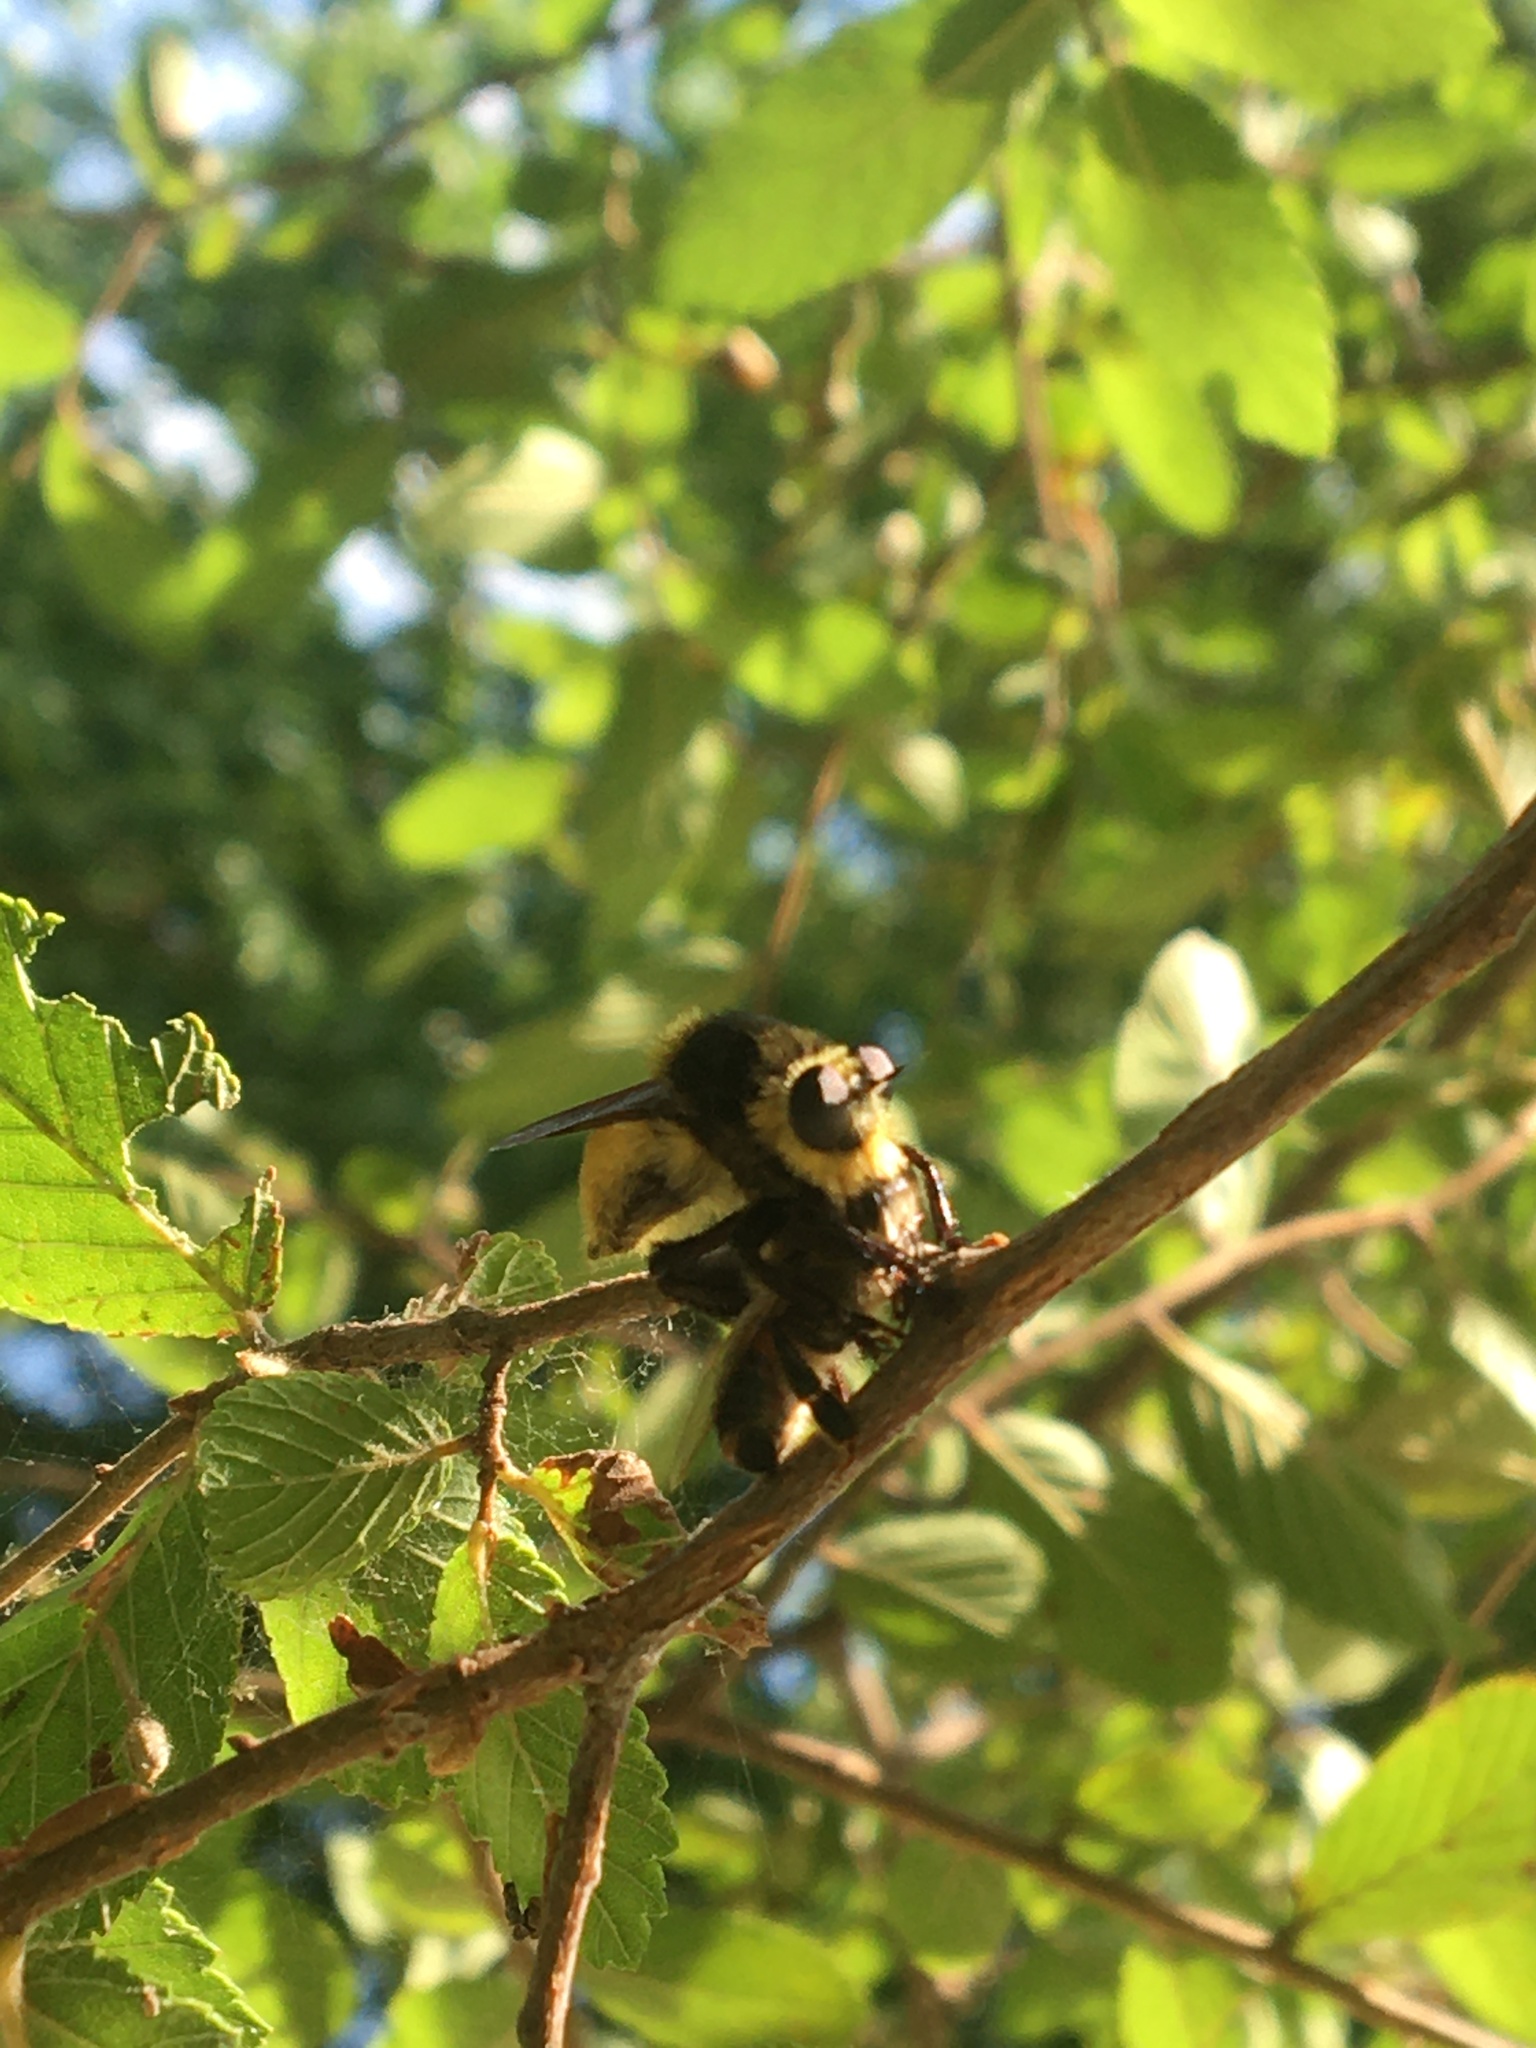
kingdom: Animalia
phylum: Arthropoda
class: Insecta
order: Diptera
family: Asilidae
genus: Mallophora
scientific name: Mallophora fautrix
